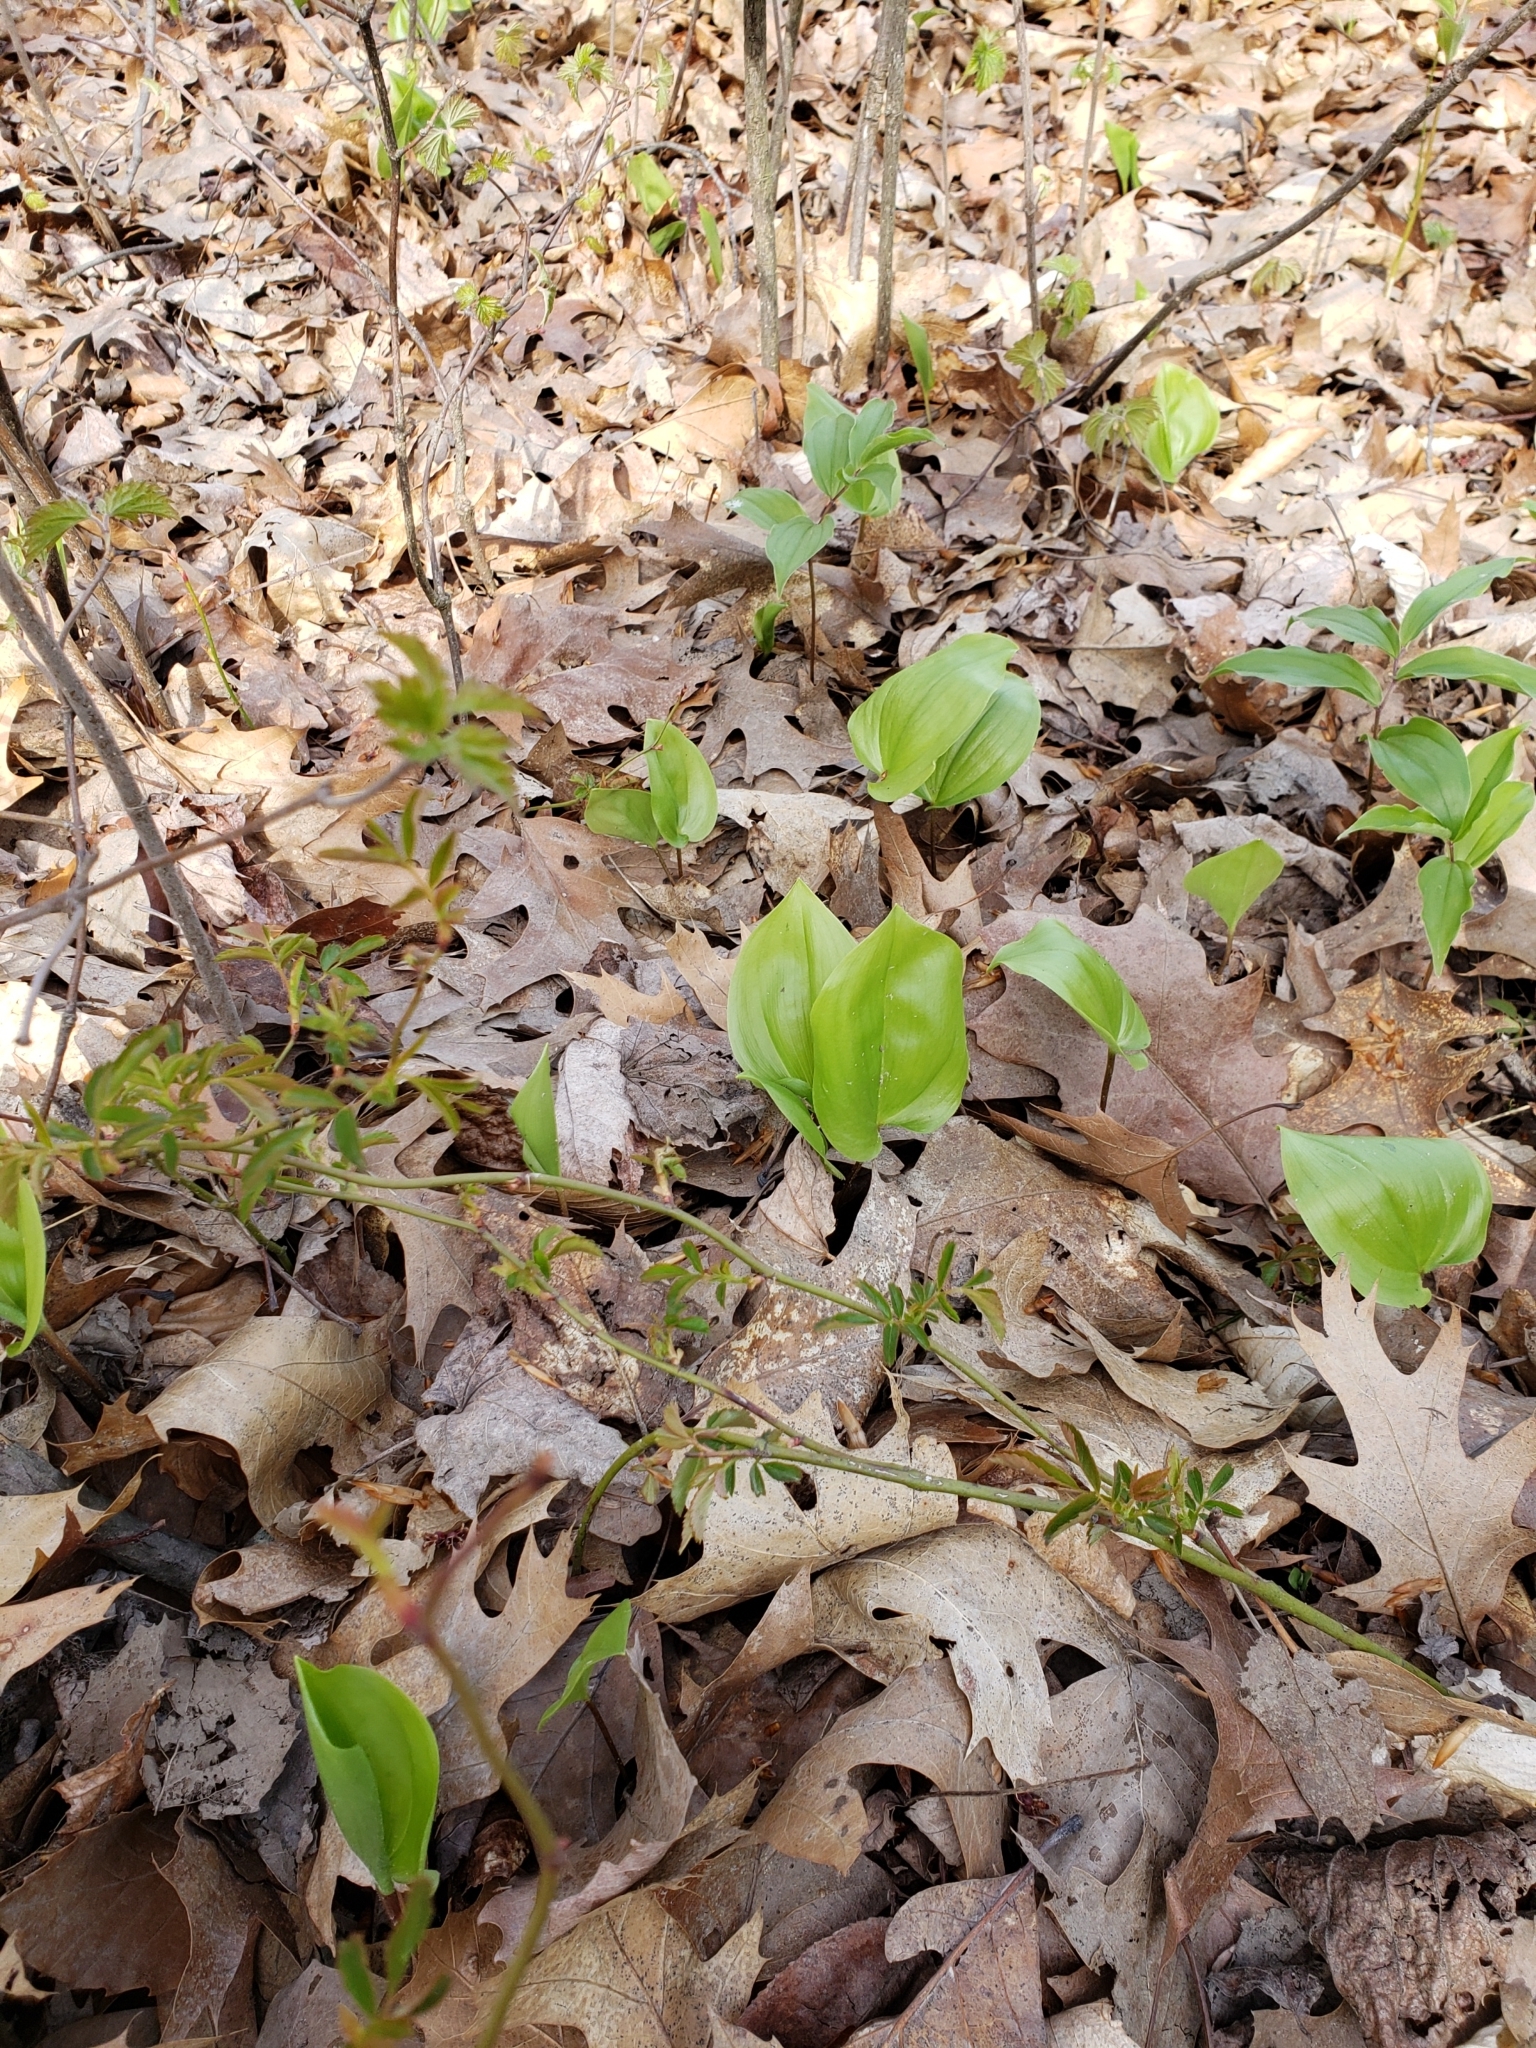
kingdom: Plantae
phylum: Tracheophyta
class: Liliopsida
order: Asparagales
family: Asparagaceae
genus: Maianthemum
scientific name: Maianthemum canadense
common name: False lily-of-the-valley
